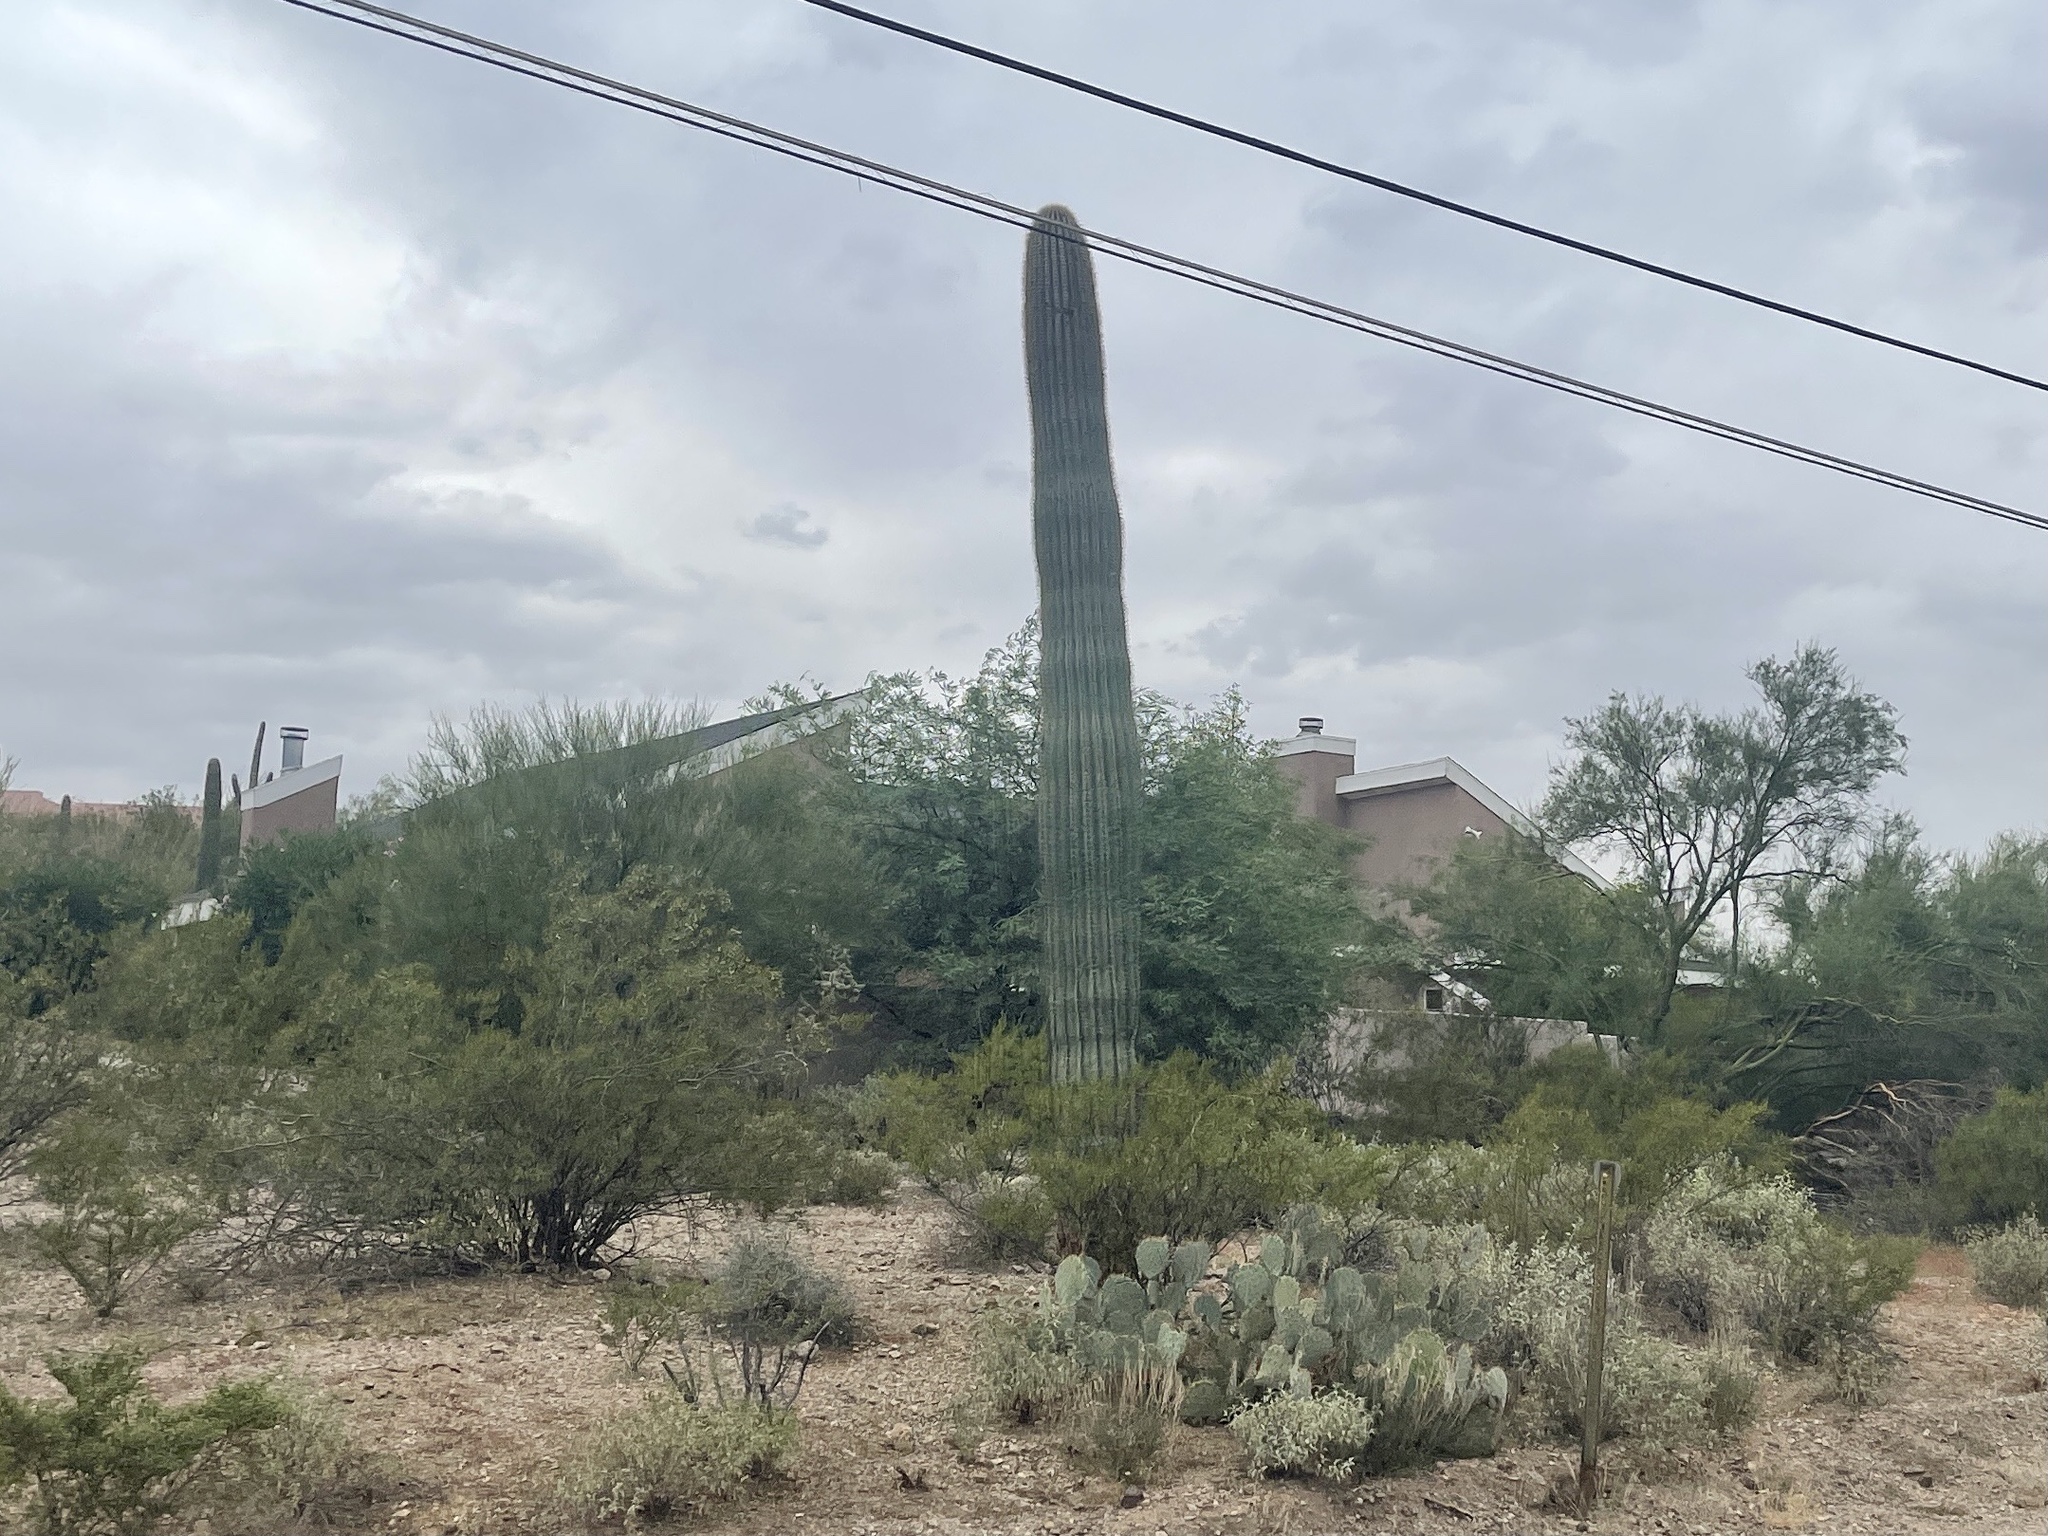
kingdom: Plantae
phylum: Tracheophyta
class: Magnoliopsida
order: Caryophyllales
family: Cactaceae
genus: Carnegiea
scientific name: Carnegiea gigantea
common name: Saguaro
